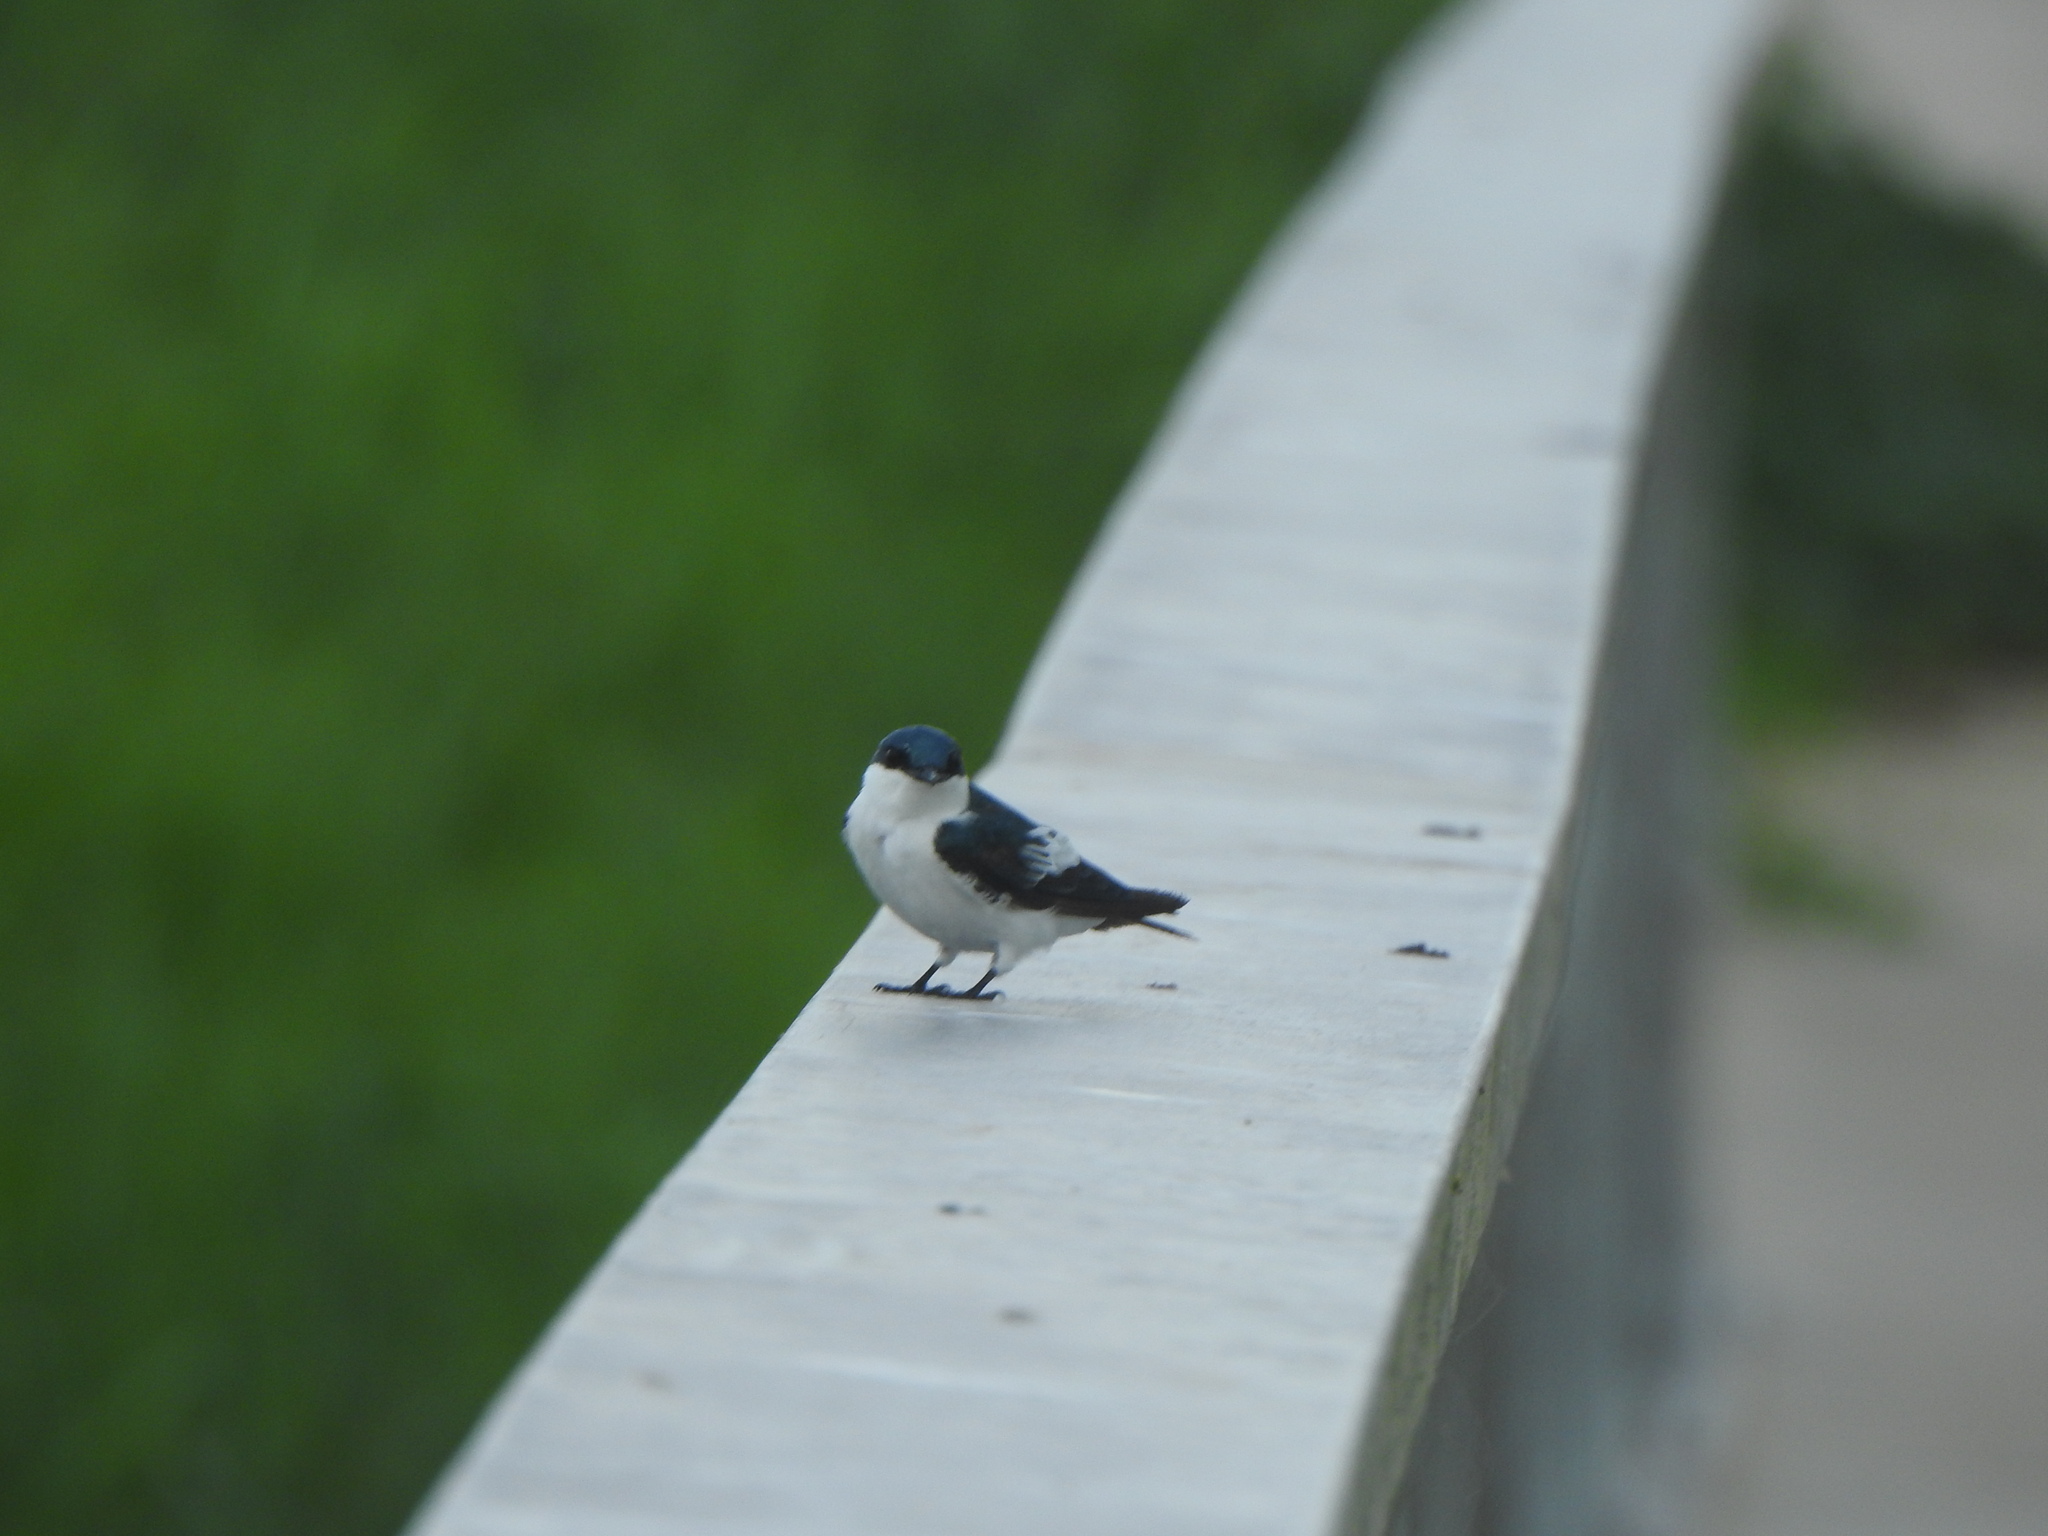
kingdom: Animalia
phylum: Chordata
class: Aves
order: Passeriformes
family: Hirundinidae
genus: Tachycineta
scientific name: Tachycineta albiventer
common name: White-winged swallow
